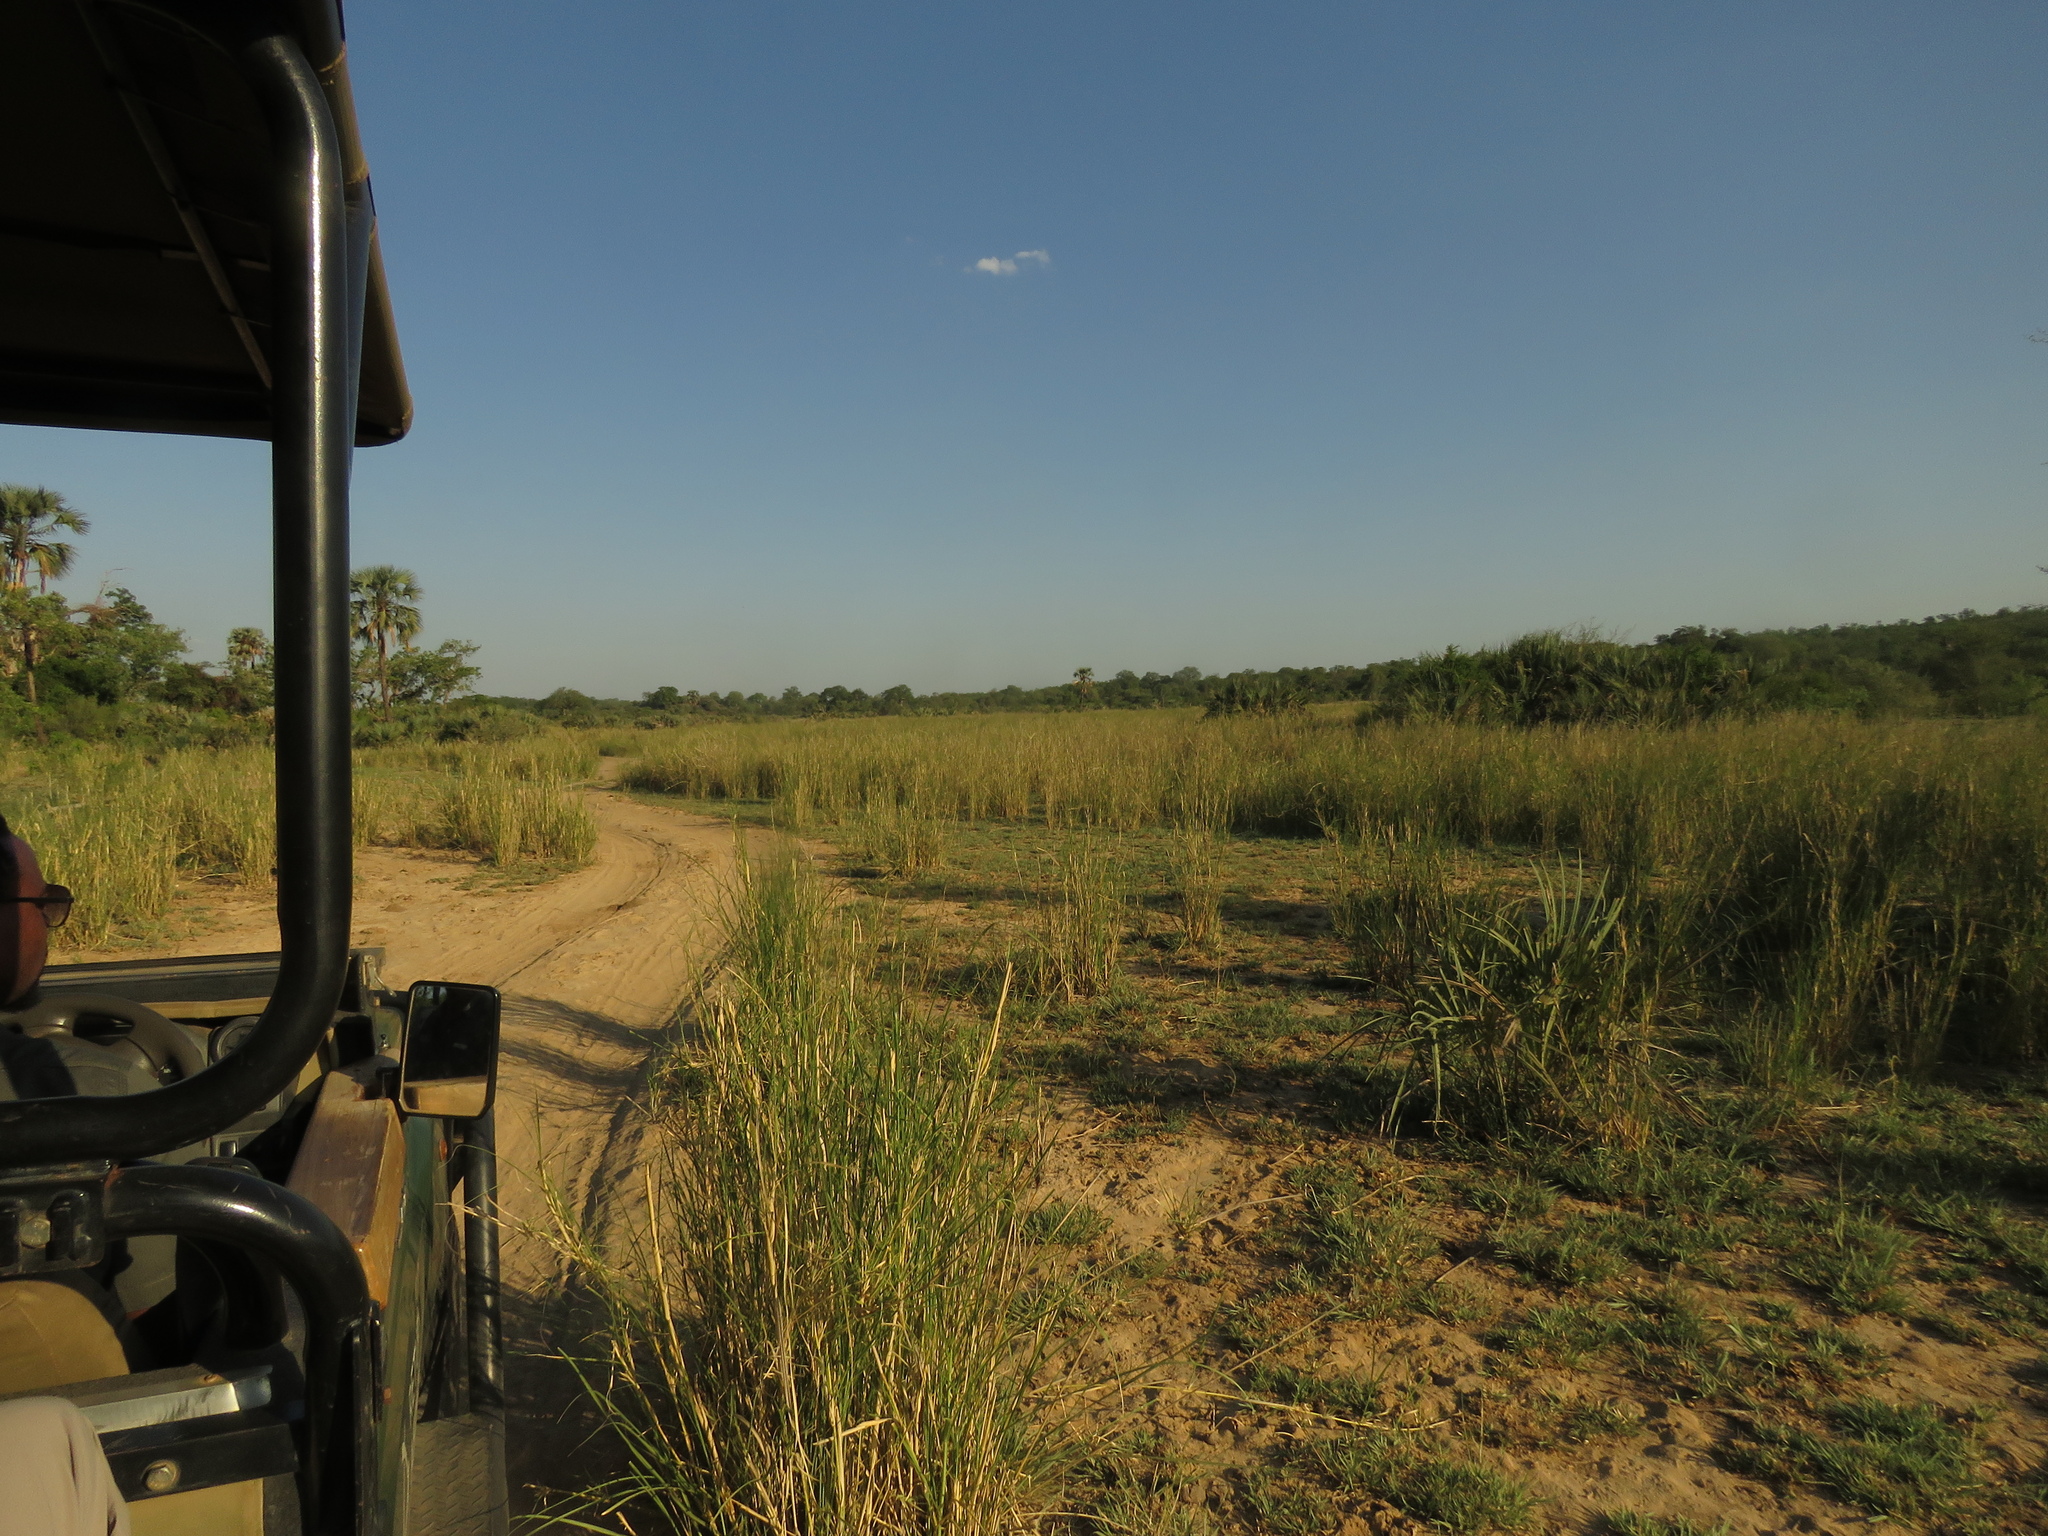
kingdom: Plantae
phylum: Tracheophyta
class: Liliopsida
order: Poales
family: Poaceae
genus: Sporobolus
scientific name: Sporobolus consimilis
